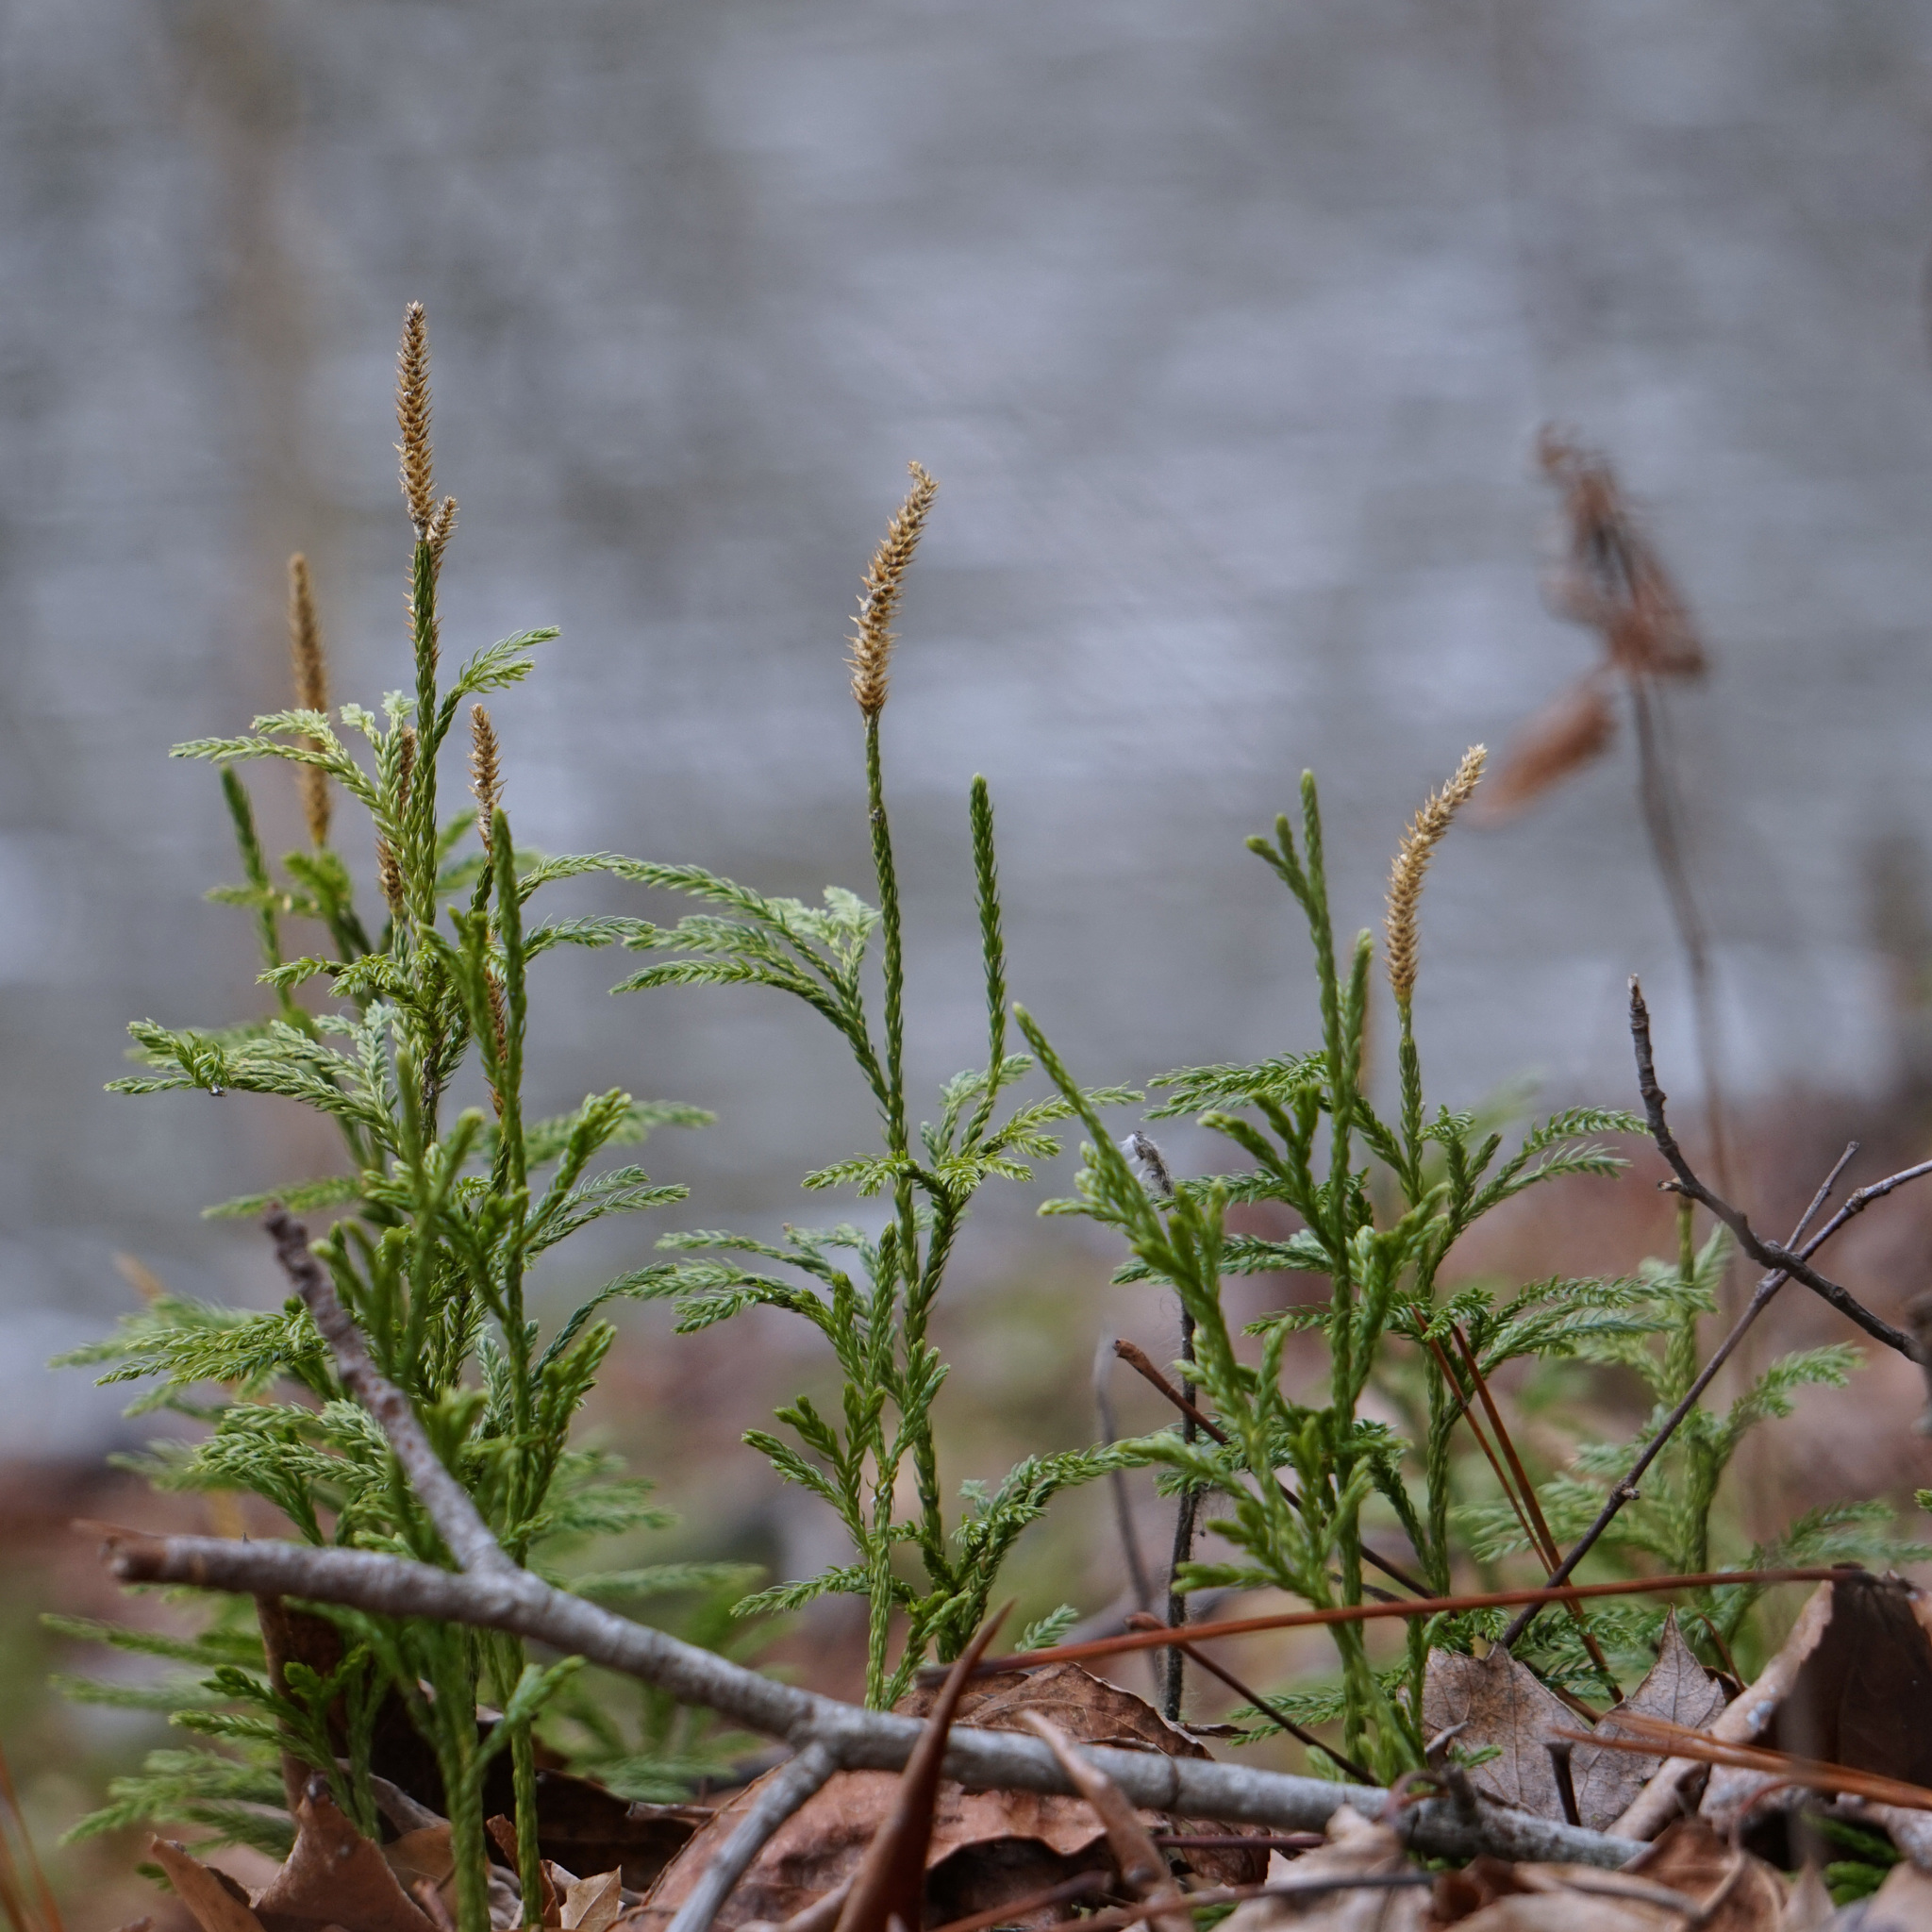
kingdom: Plantae
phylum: Tracheophyta
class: Lycopodiopsida
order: Lycopodiales
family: Lycopodiaceae
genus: Dendrolycopodium
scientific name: Dendrolycopodium obscurum
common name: Common ground-pine
